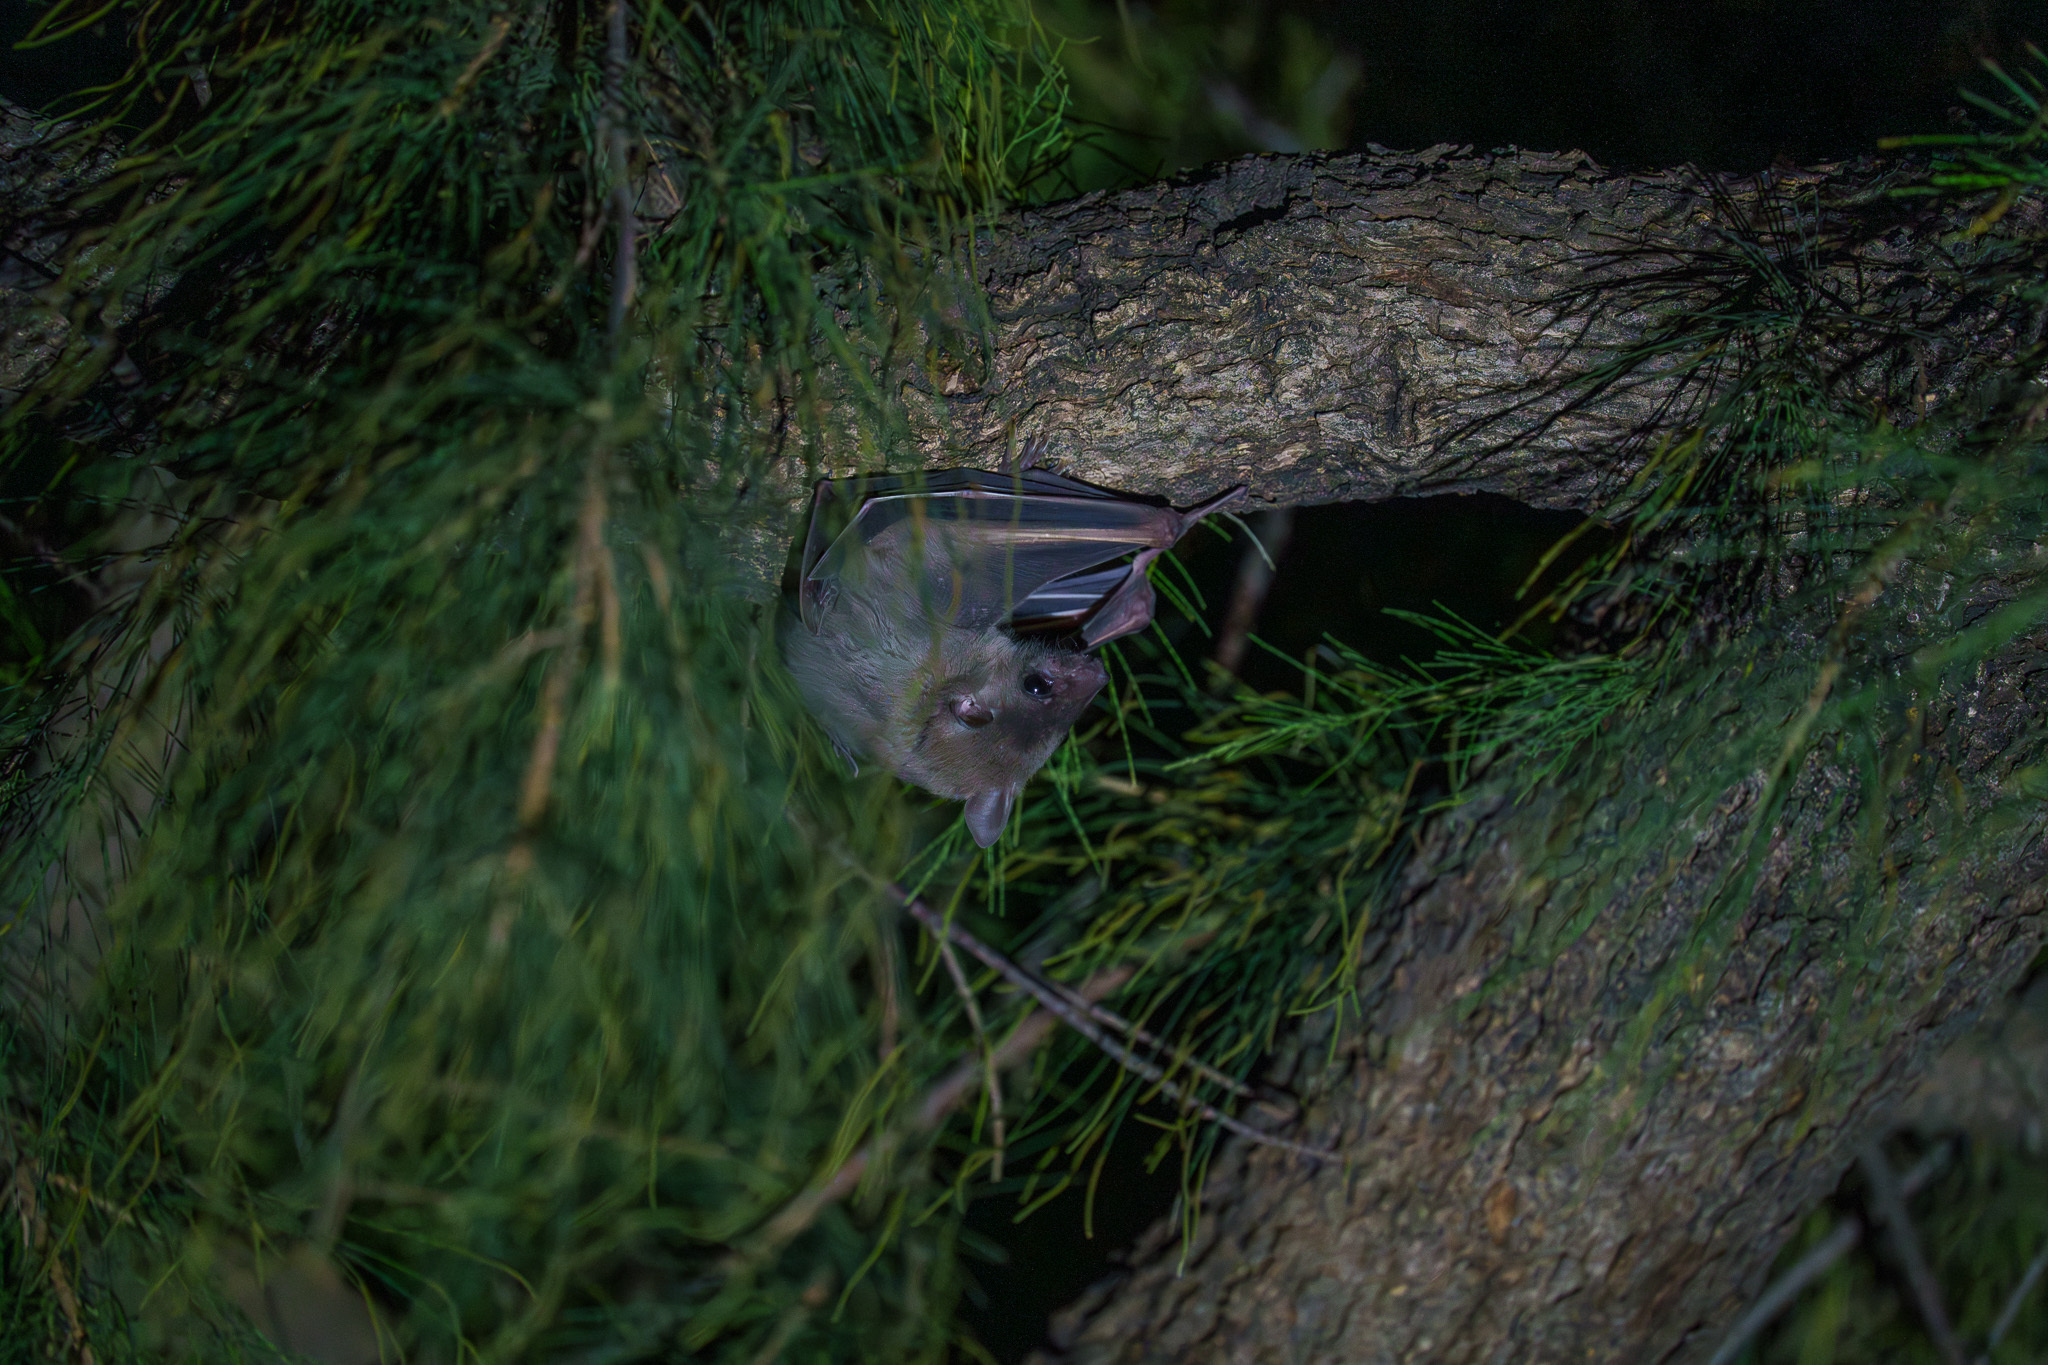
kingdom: Animalia
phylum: Chordata
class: Mammalia
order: Chiroptera
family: Pteropodidae
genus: Rousettus
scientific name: Rousettus aegyptiacus
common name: Egyptian rousette
